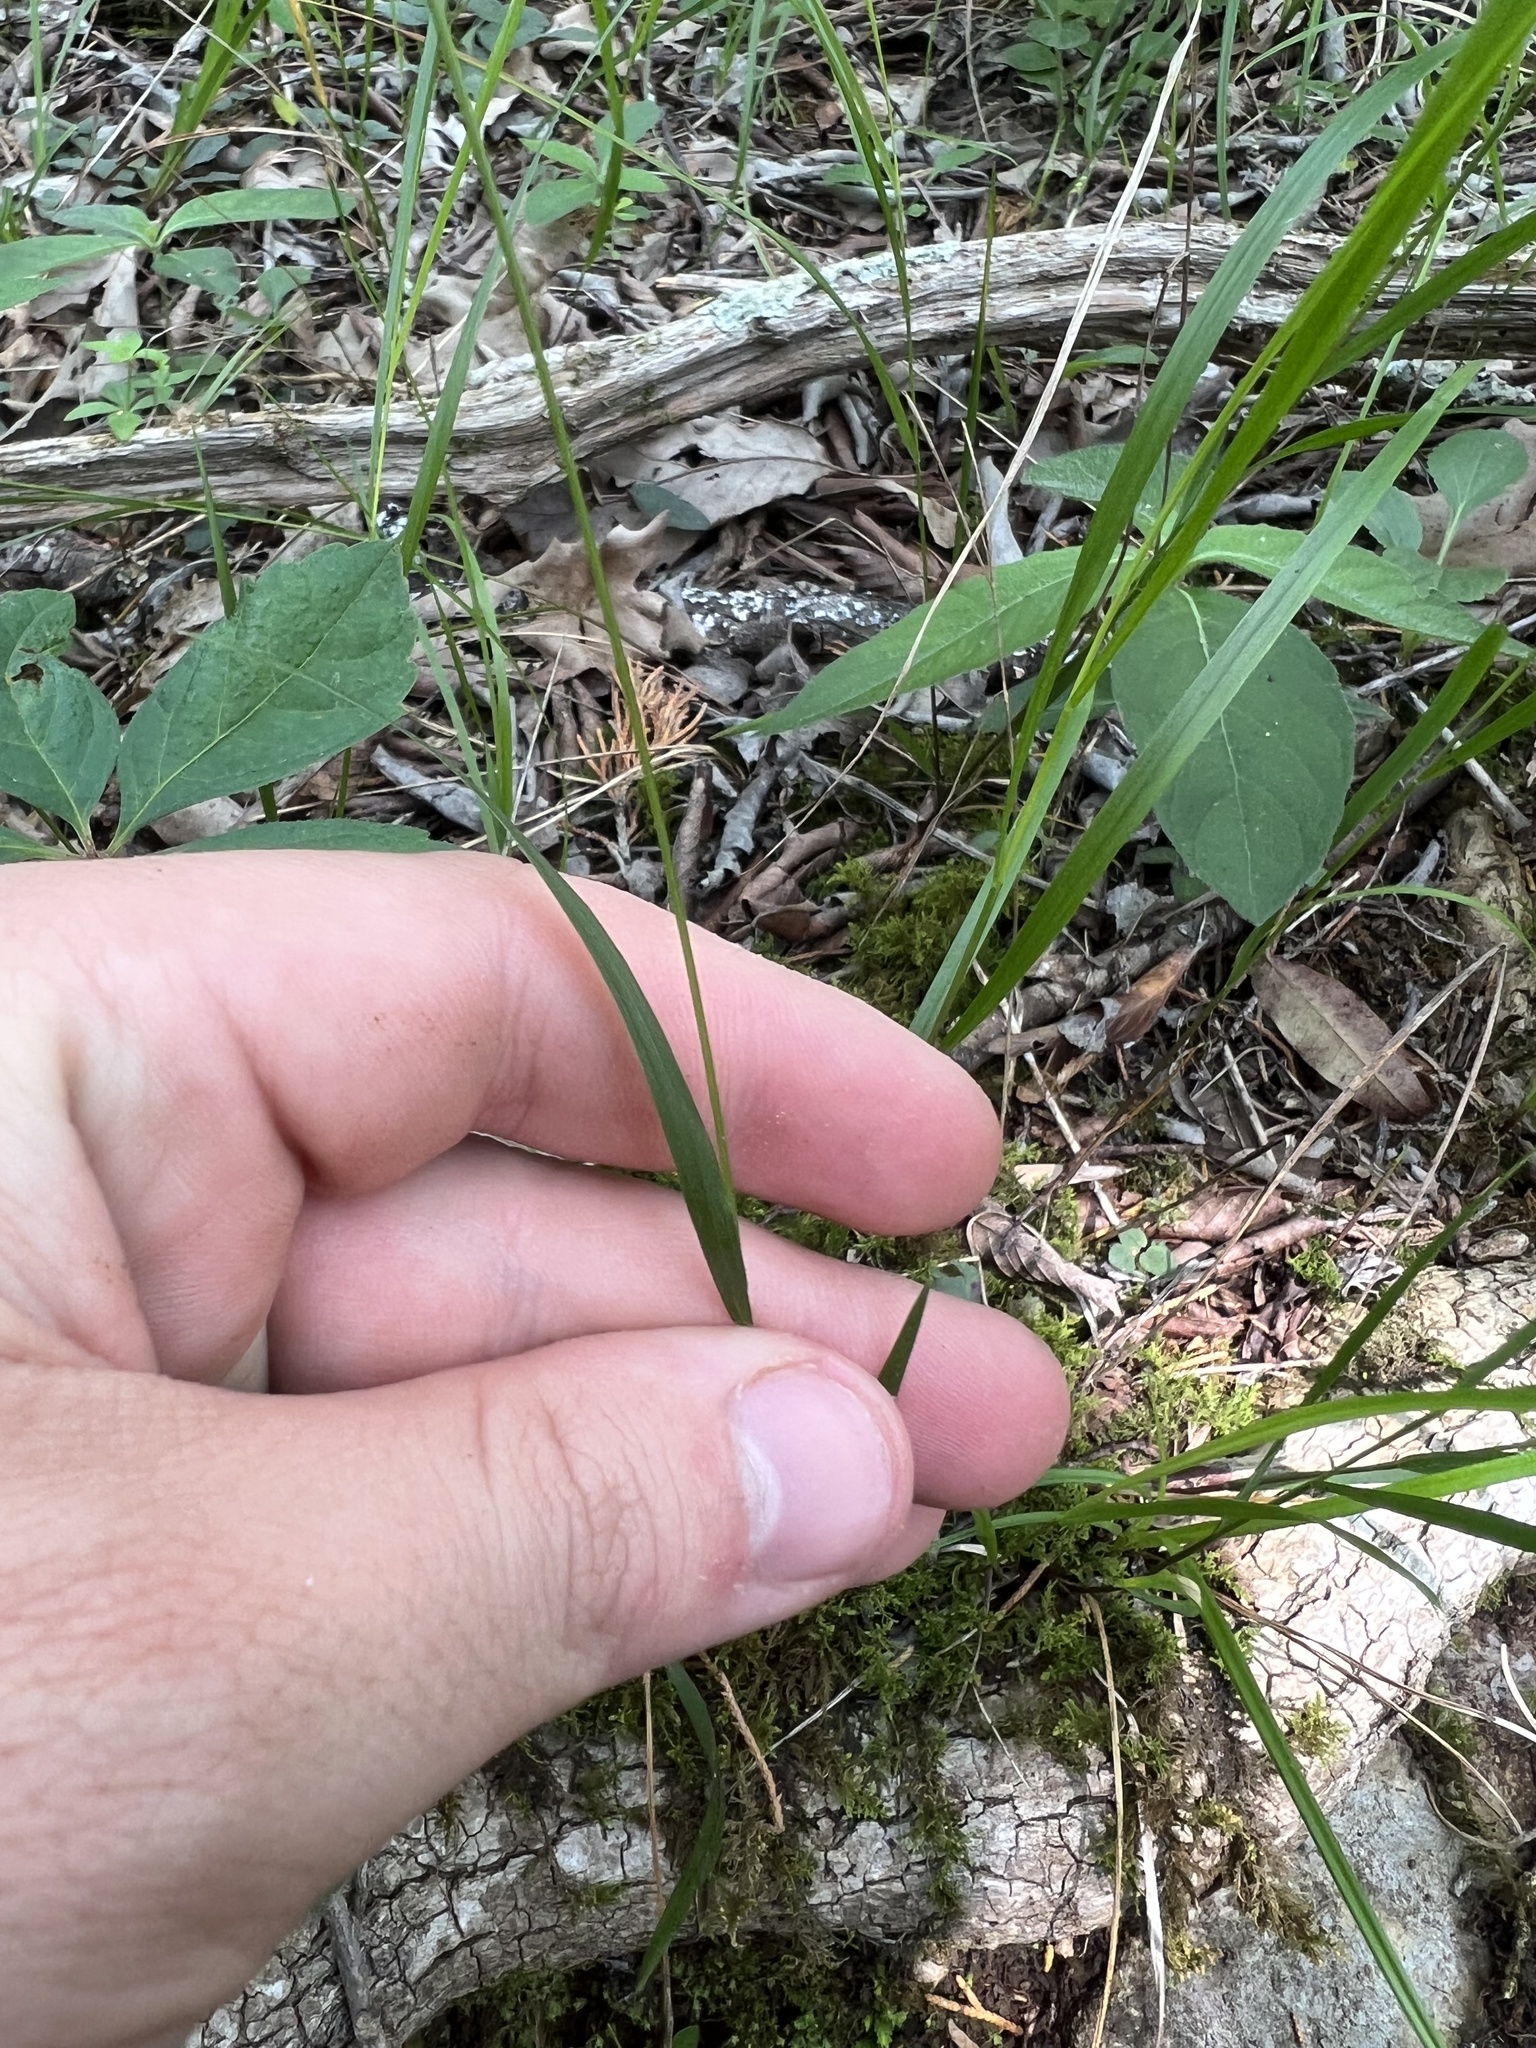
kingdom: Plantae
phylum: Tracheophyta
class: Liliopsida
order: Poales
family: Poaceae
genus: Melica
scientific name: Melica mutica
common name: Two-flower melic
